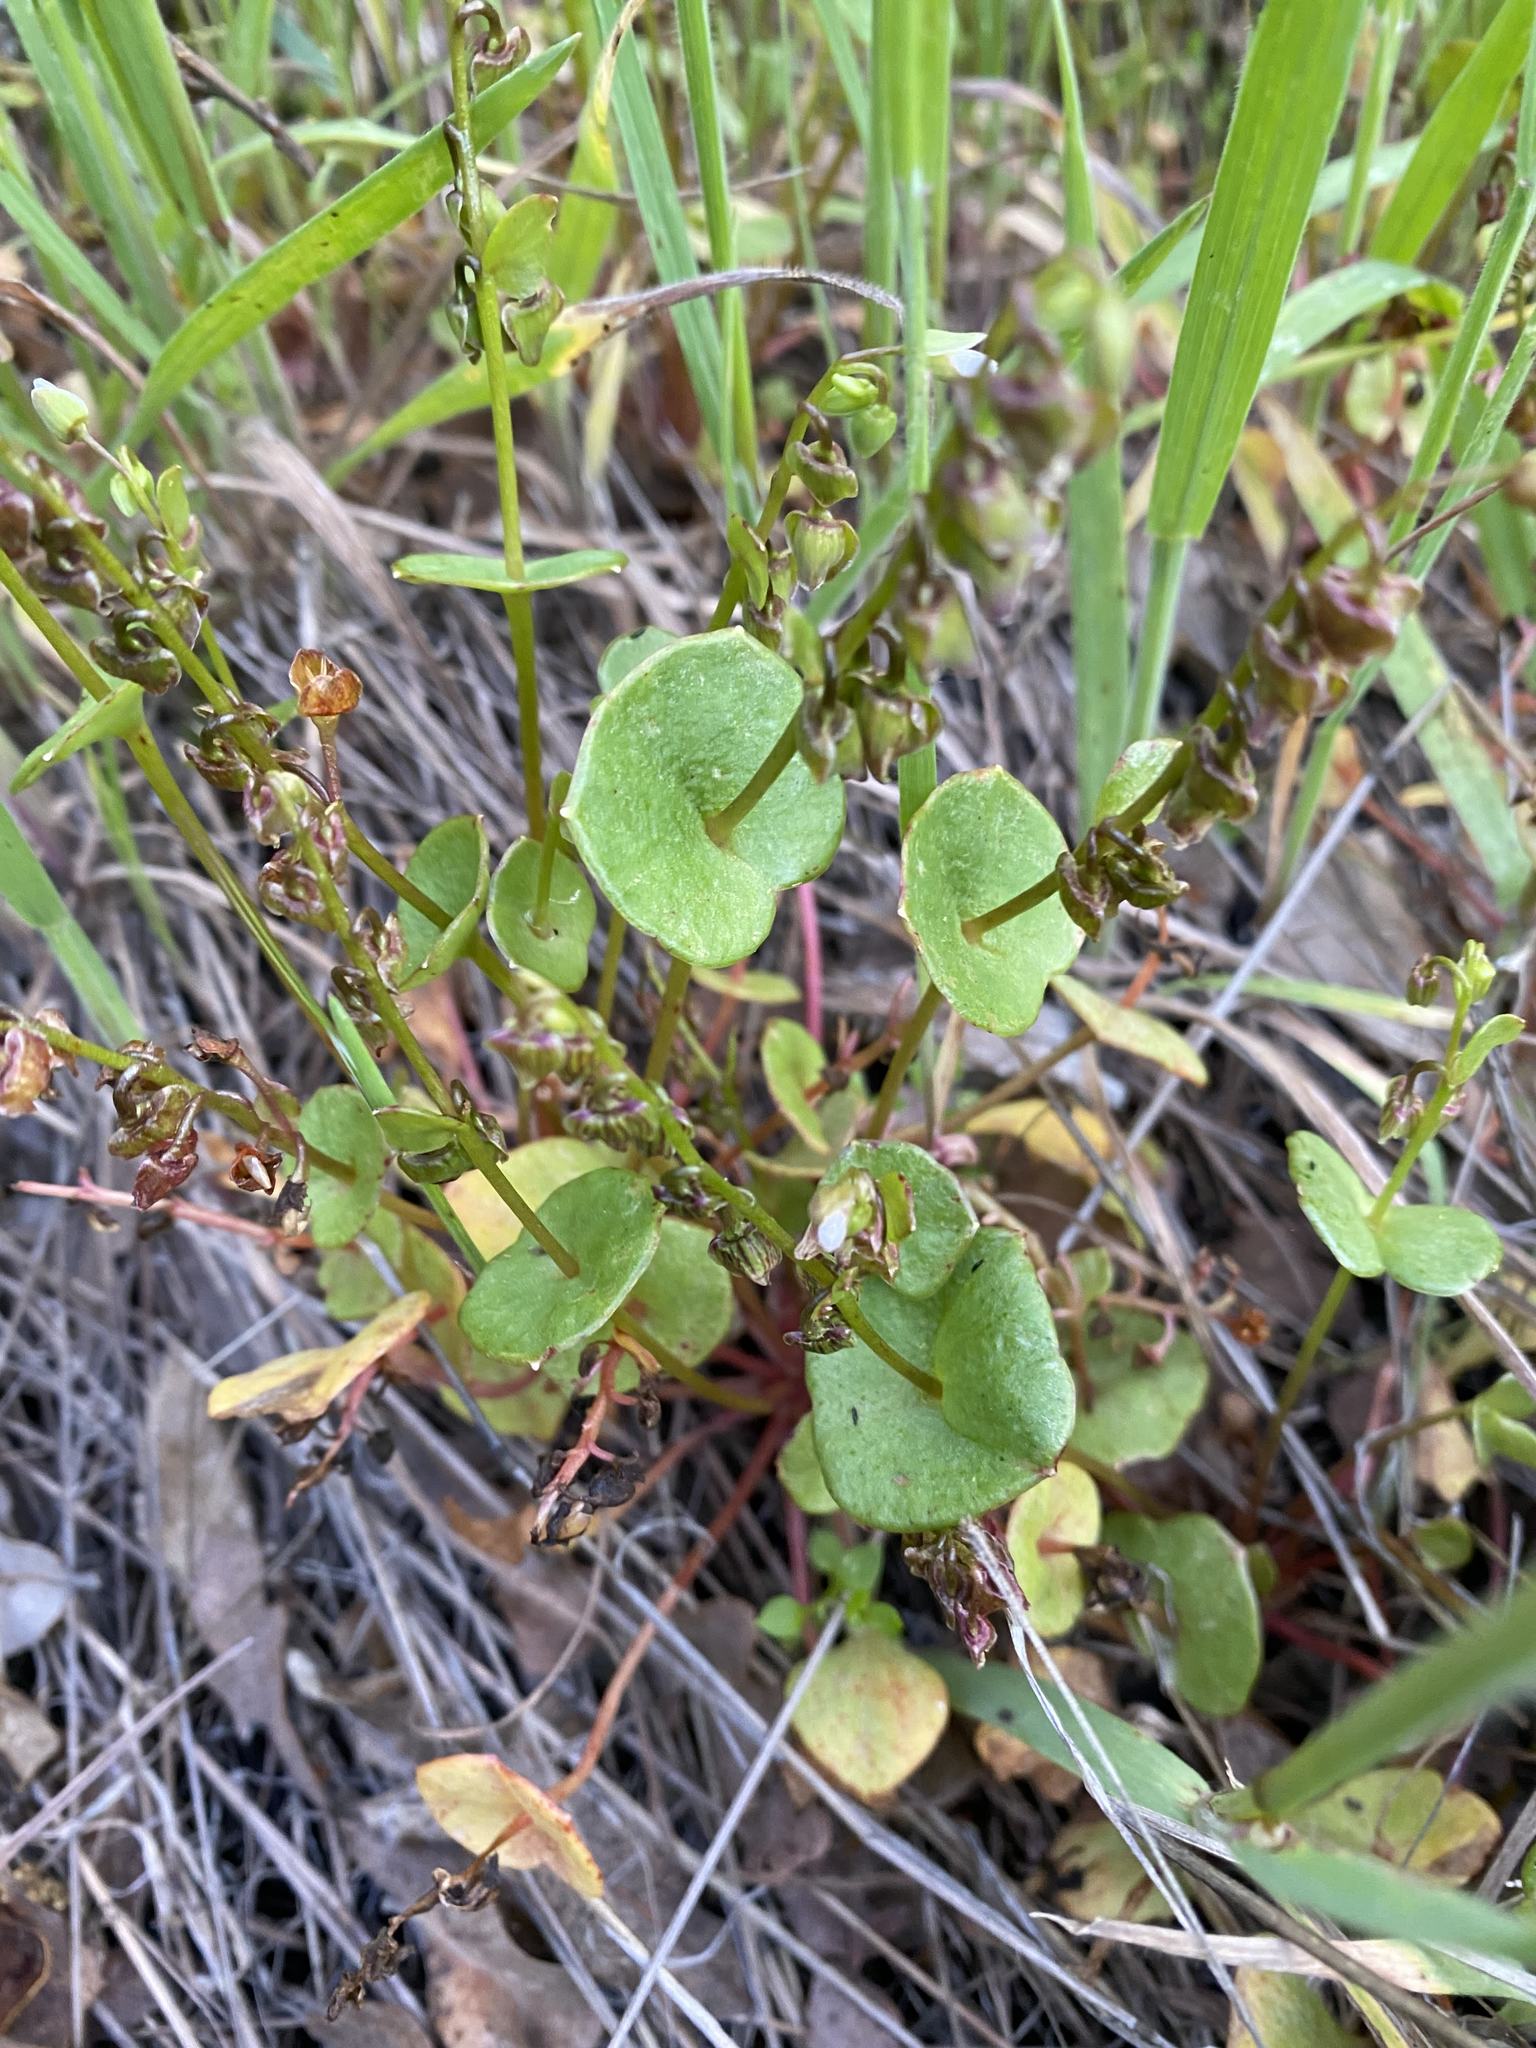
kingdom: Plantae
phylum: Tracheophyta
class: Magnoliopsida
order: Caryophyllales
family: Montiaceae
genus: Claytonia
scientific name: Claytonia perfoliata
